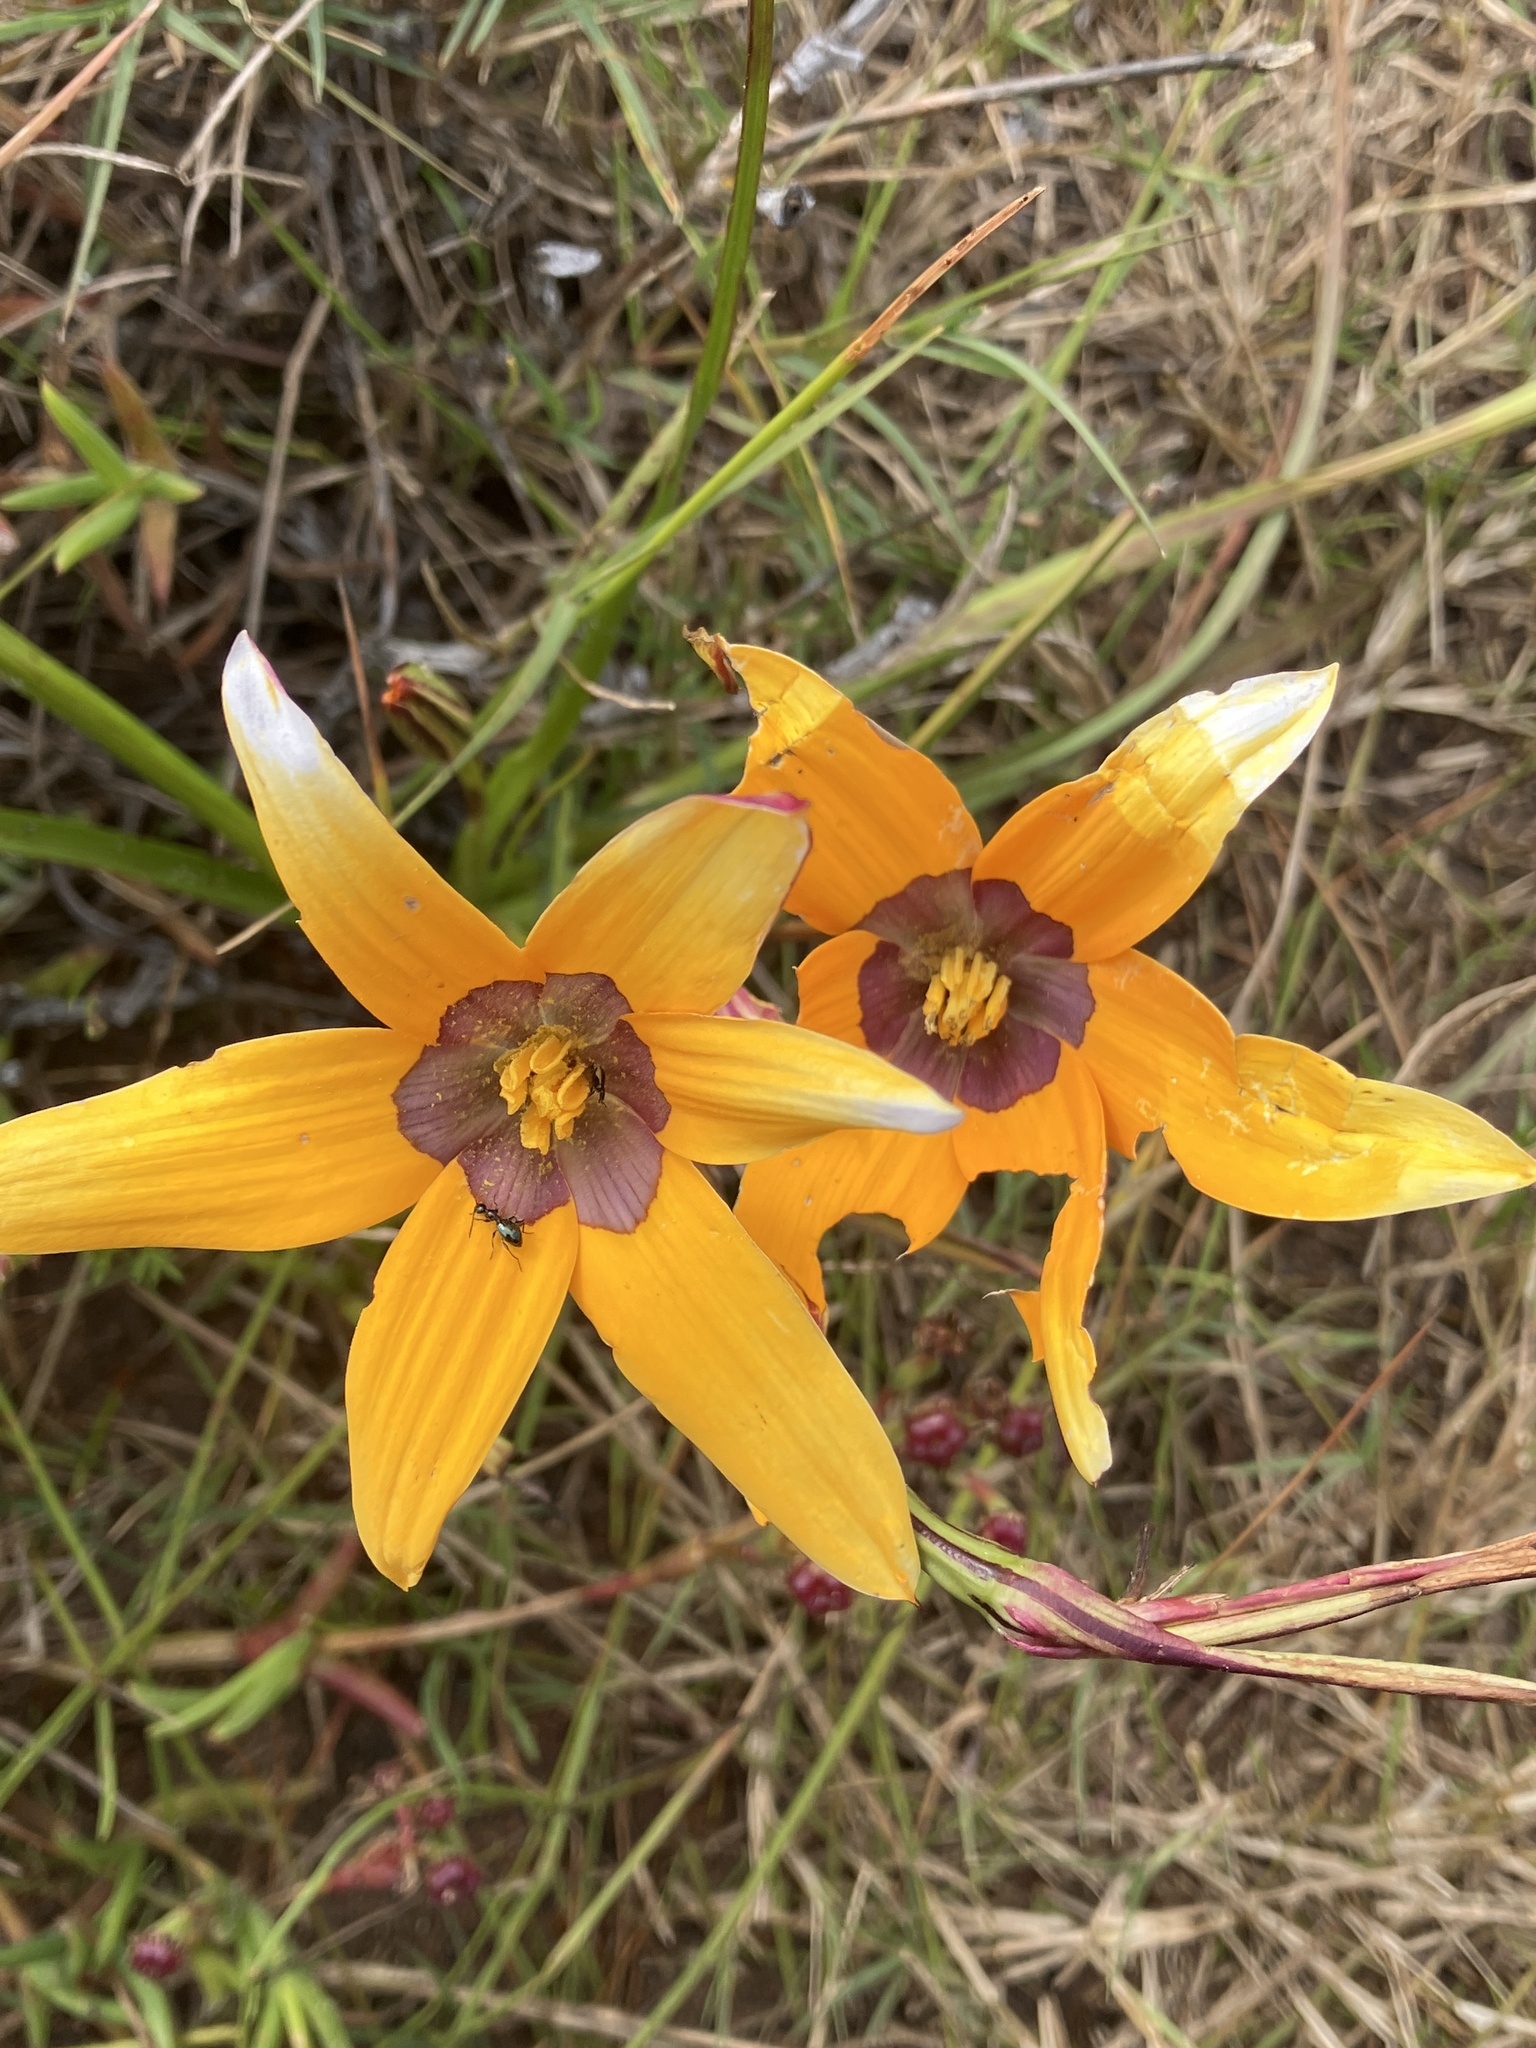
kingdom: Plantae
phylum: Tracheophyta
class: Liliopsida
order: Asparagales
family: Hypoxidaceae
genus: Pauridia
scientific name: Pauridia canaliculata
